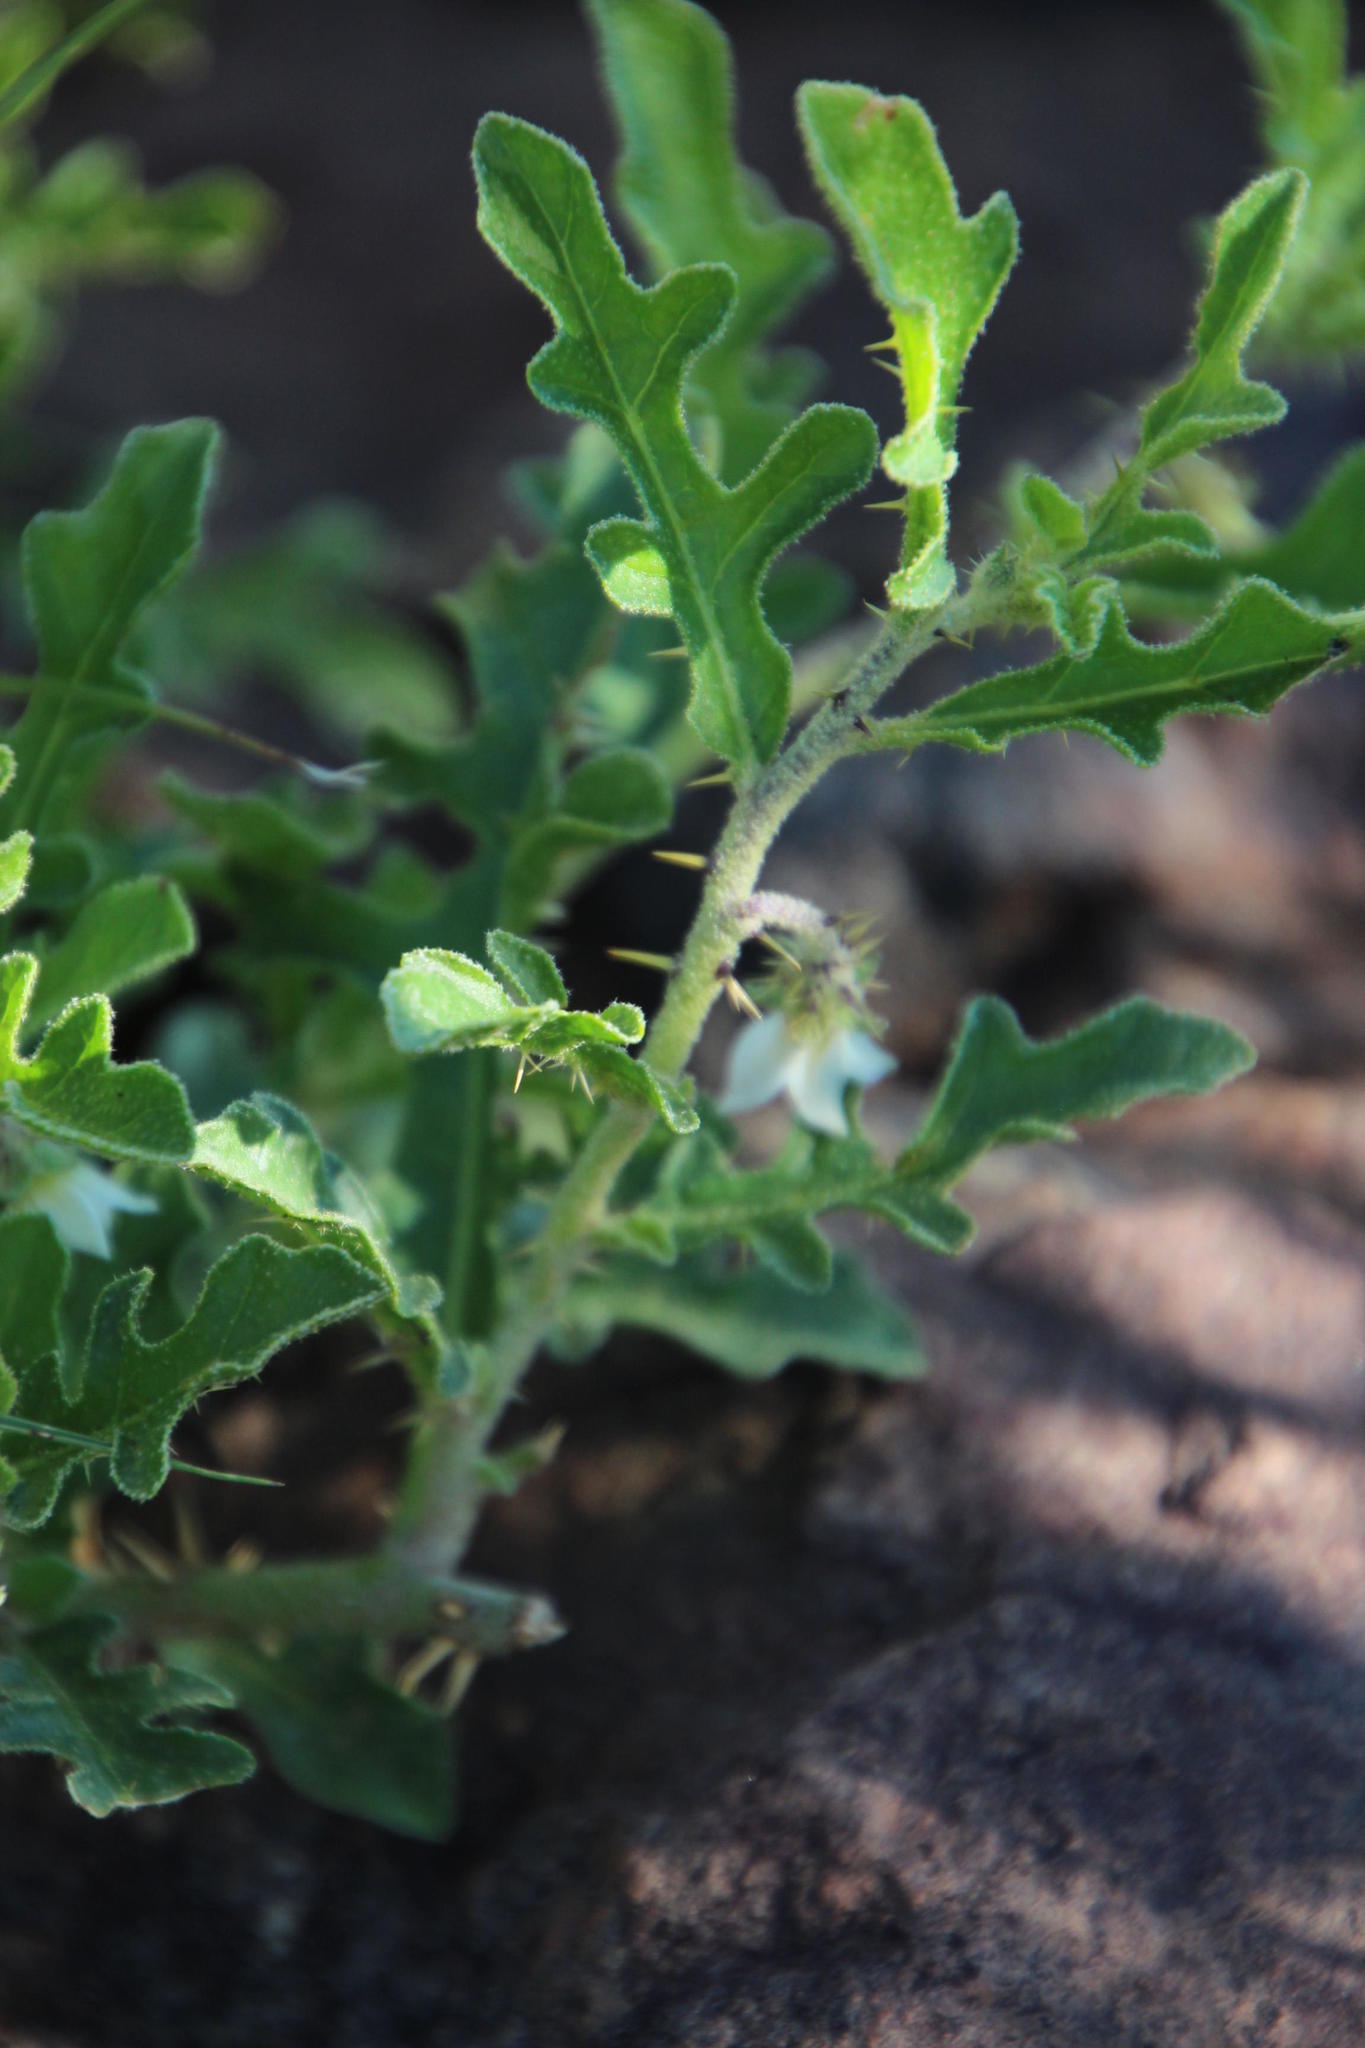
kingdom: Plantae
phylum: Tracheophyta
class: Magnoliopsida
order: Solanales
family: Solanaceae
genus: Solanum
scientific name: Solanum supinum
